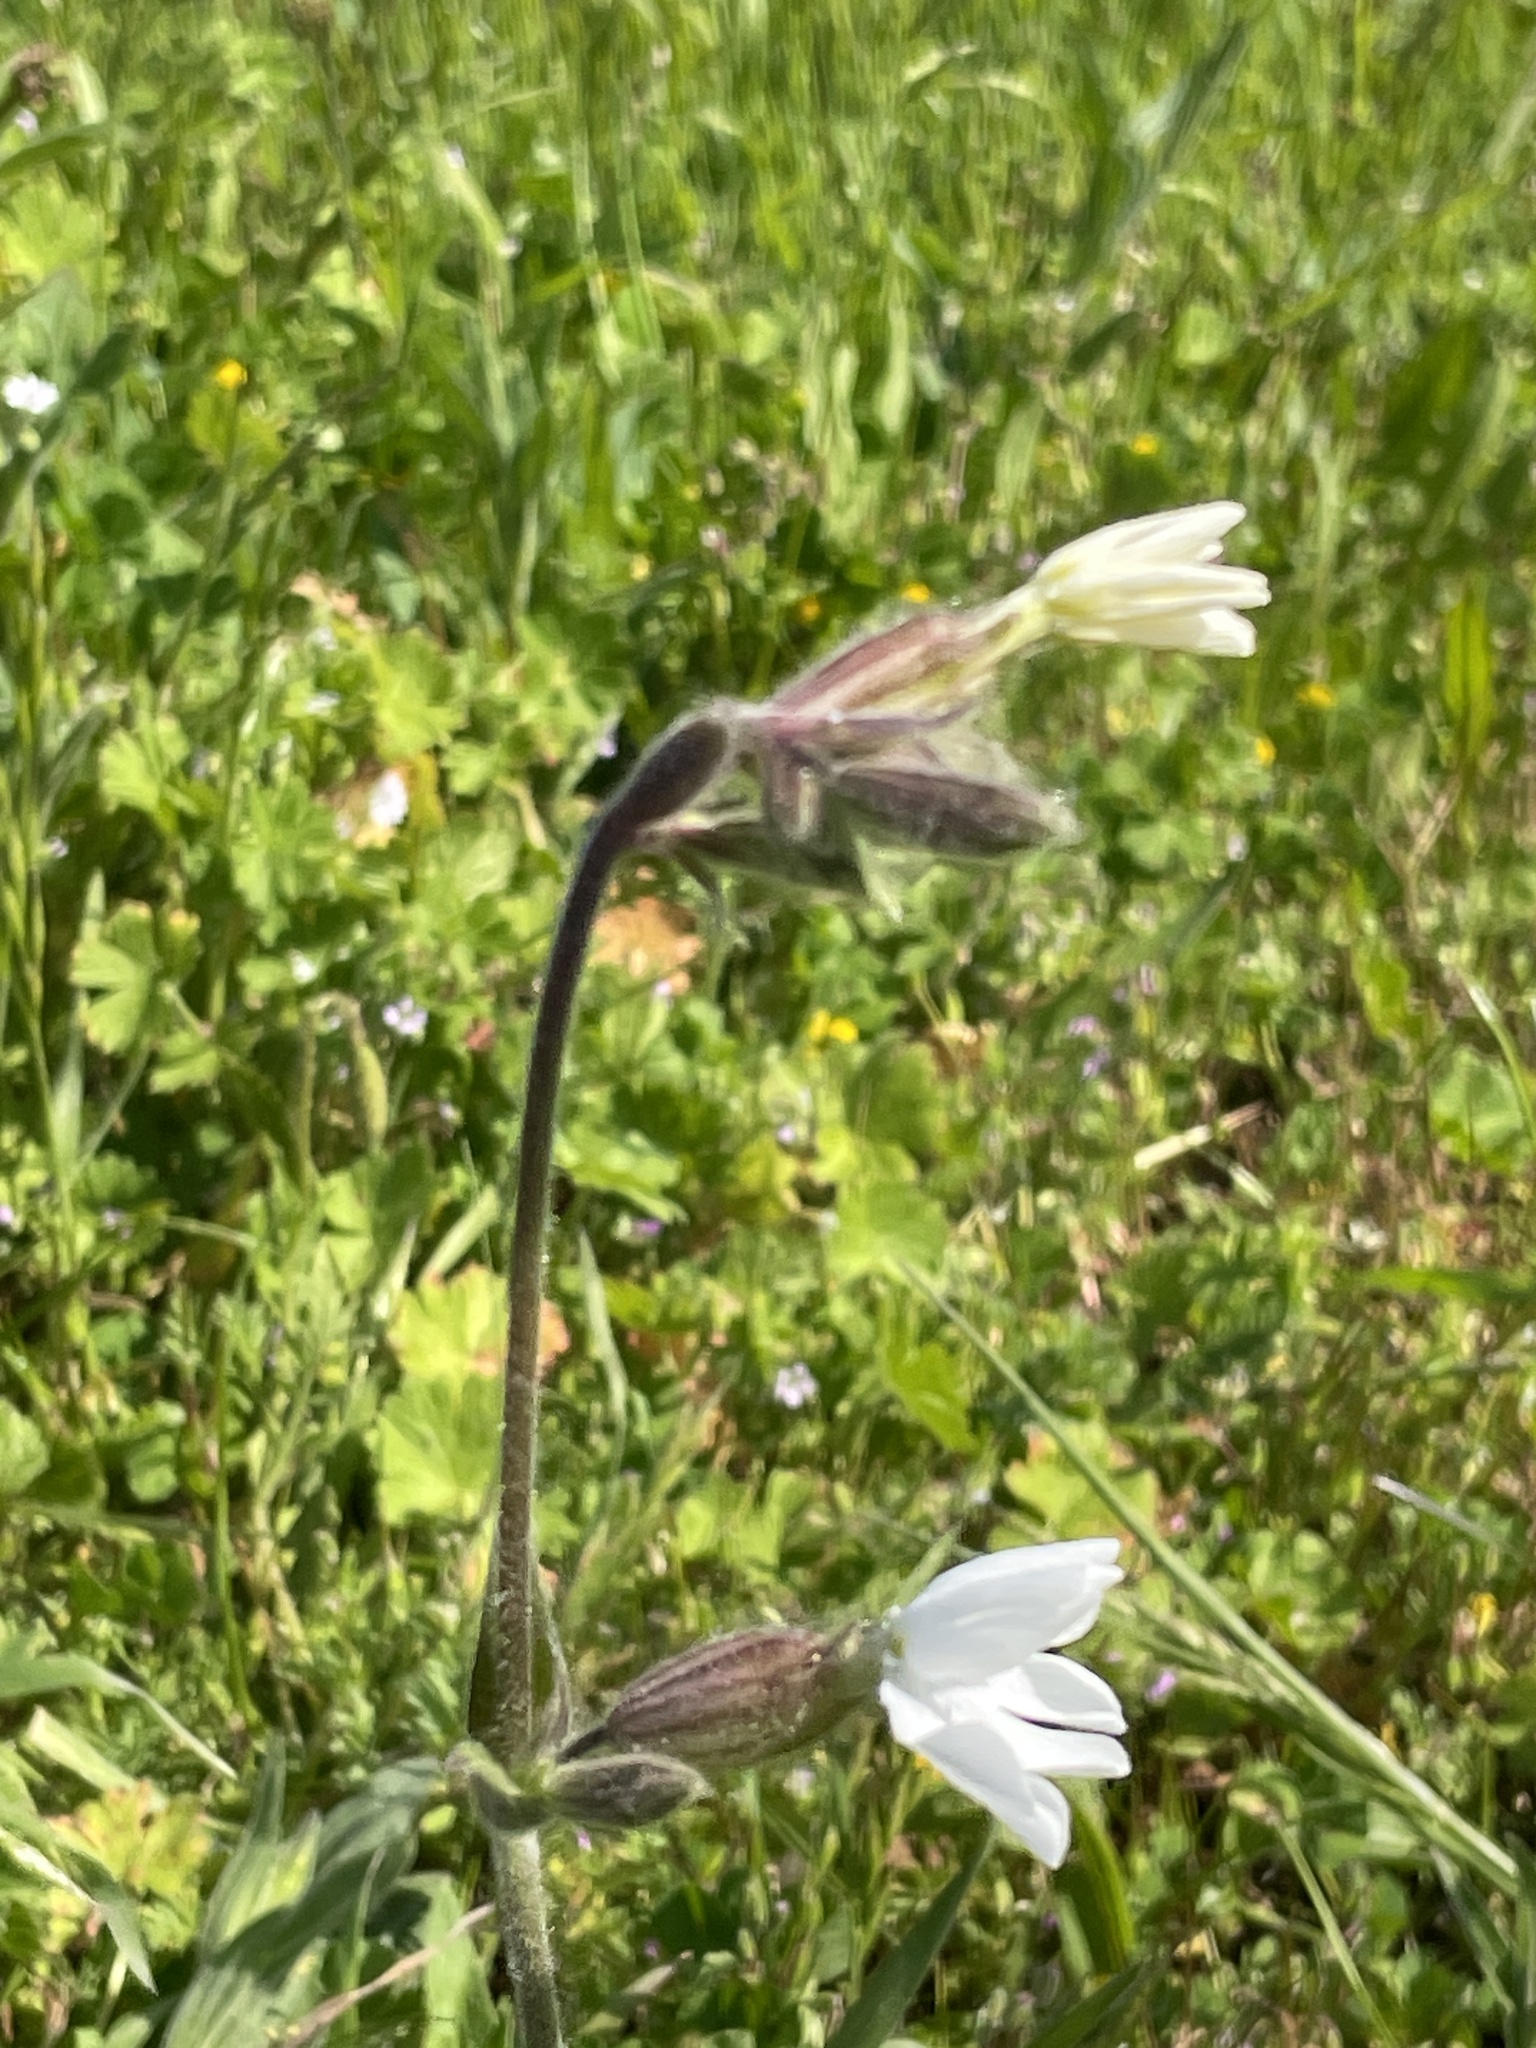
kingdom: Plantae
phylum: Tracheophyta
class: Magnoliopsida
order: Caryophyllales
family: Caryophyllaceae
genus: Silene
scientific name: Silene latifolia
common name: White campion
